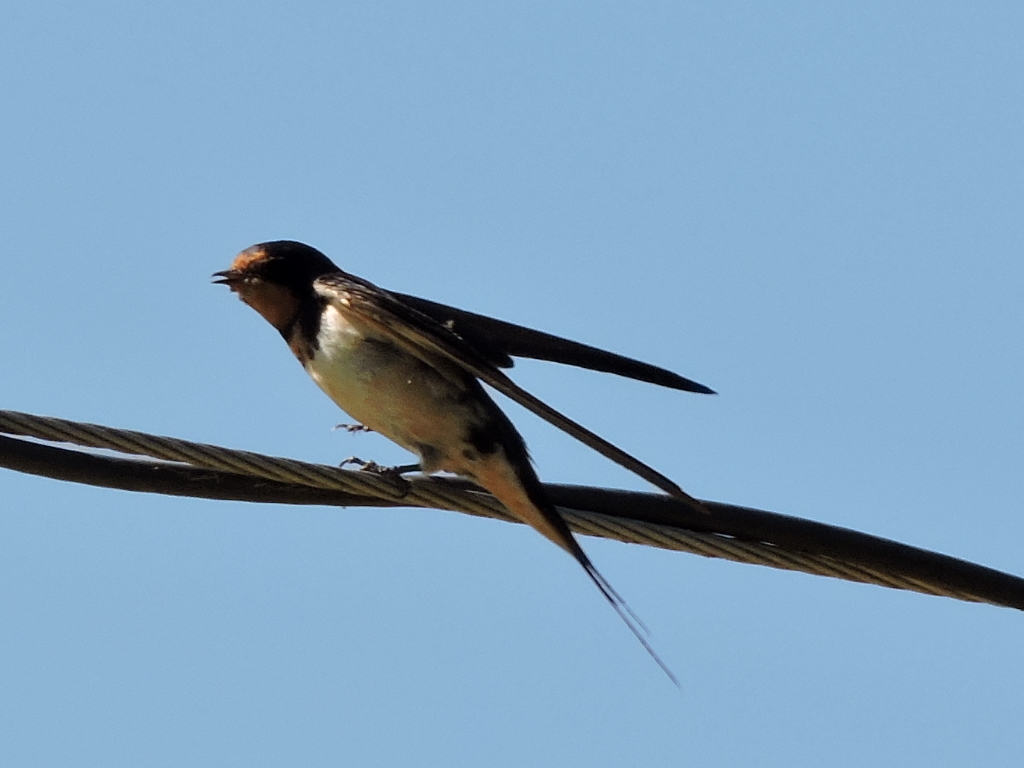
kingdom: Animalia
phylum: Chordata
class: Aves
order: Passeriformes
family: Hirundinidae
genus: Hirundo
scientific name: Hirundo rustica
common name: Barn swallow
